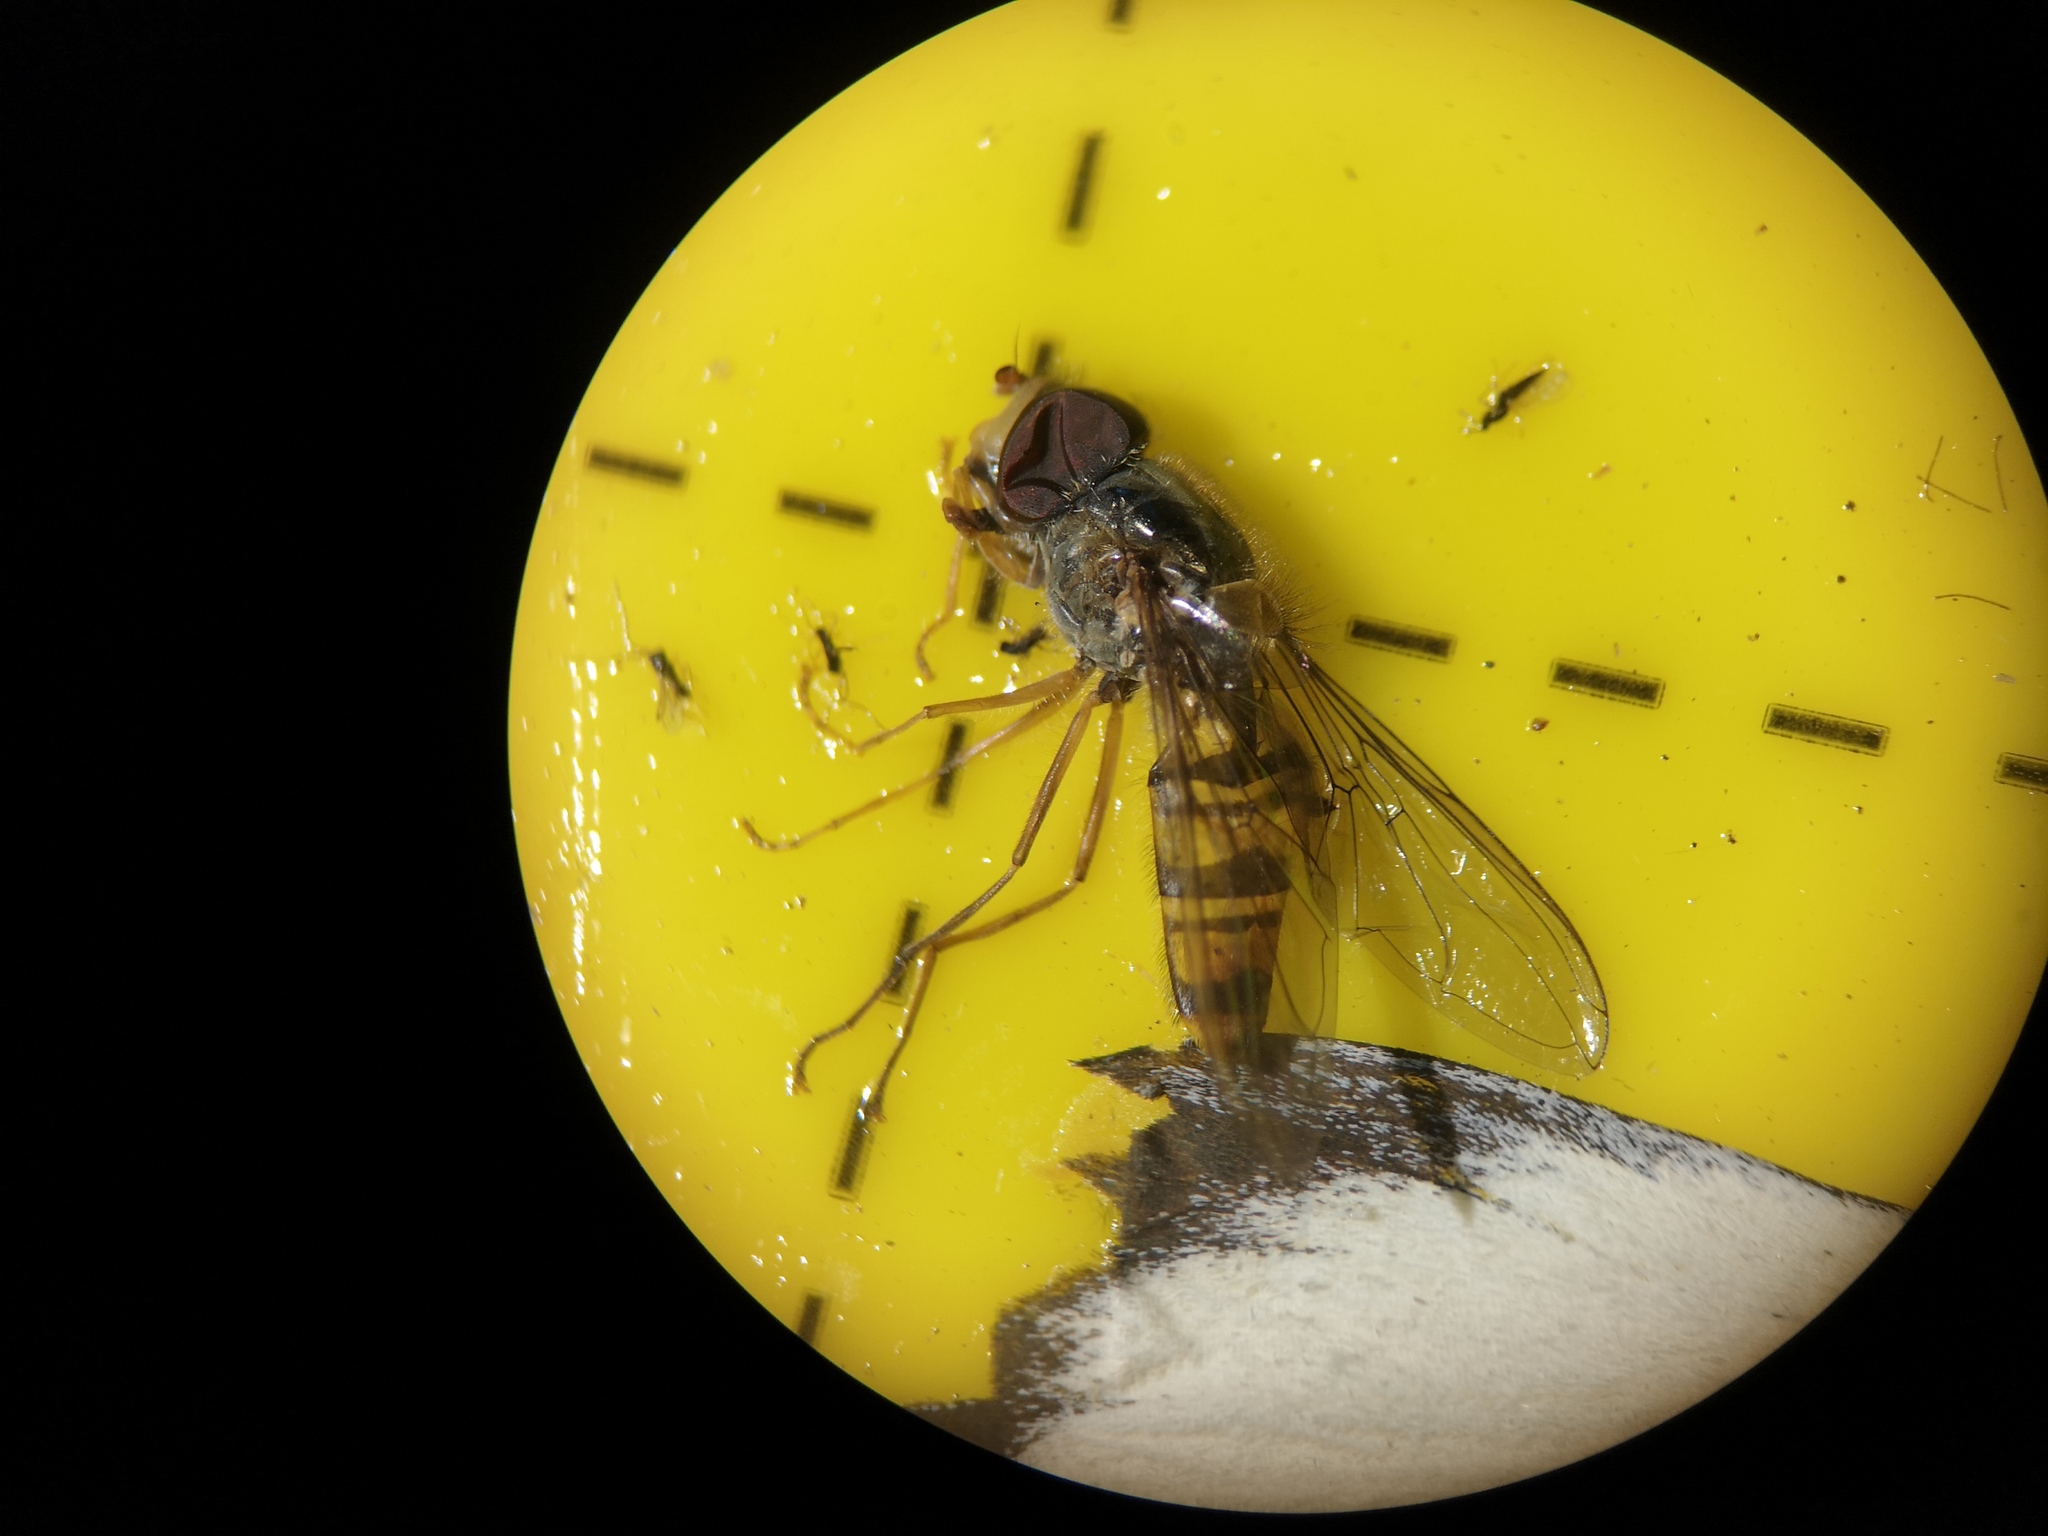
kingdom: Animalia
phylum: Arthropoda
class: Insecta
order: Diptera
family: Syrphidae
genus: Episyrphus
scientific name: Episyrphus balteatus
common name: Marmalade hoverfly
